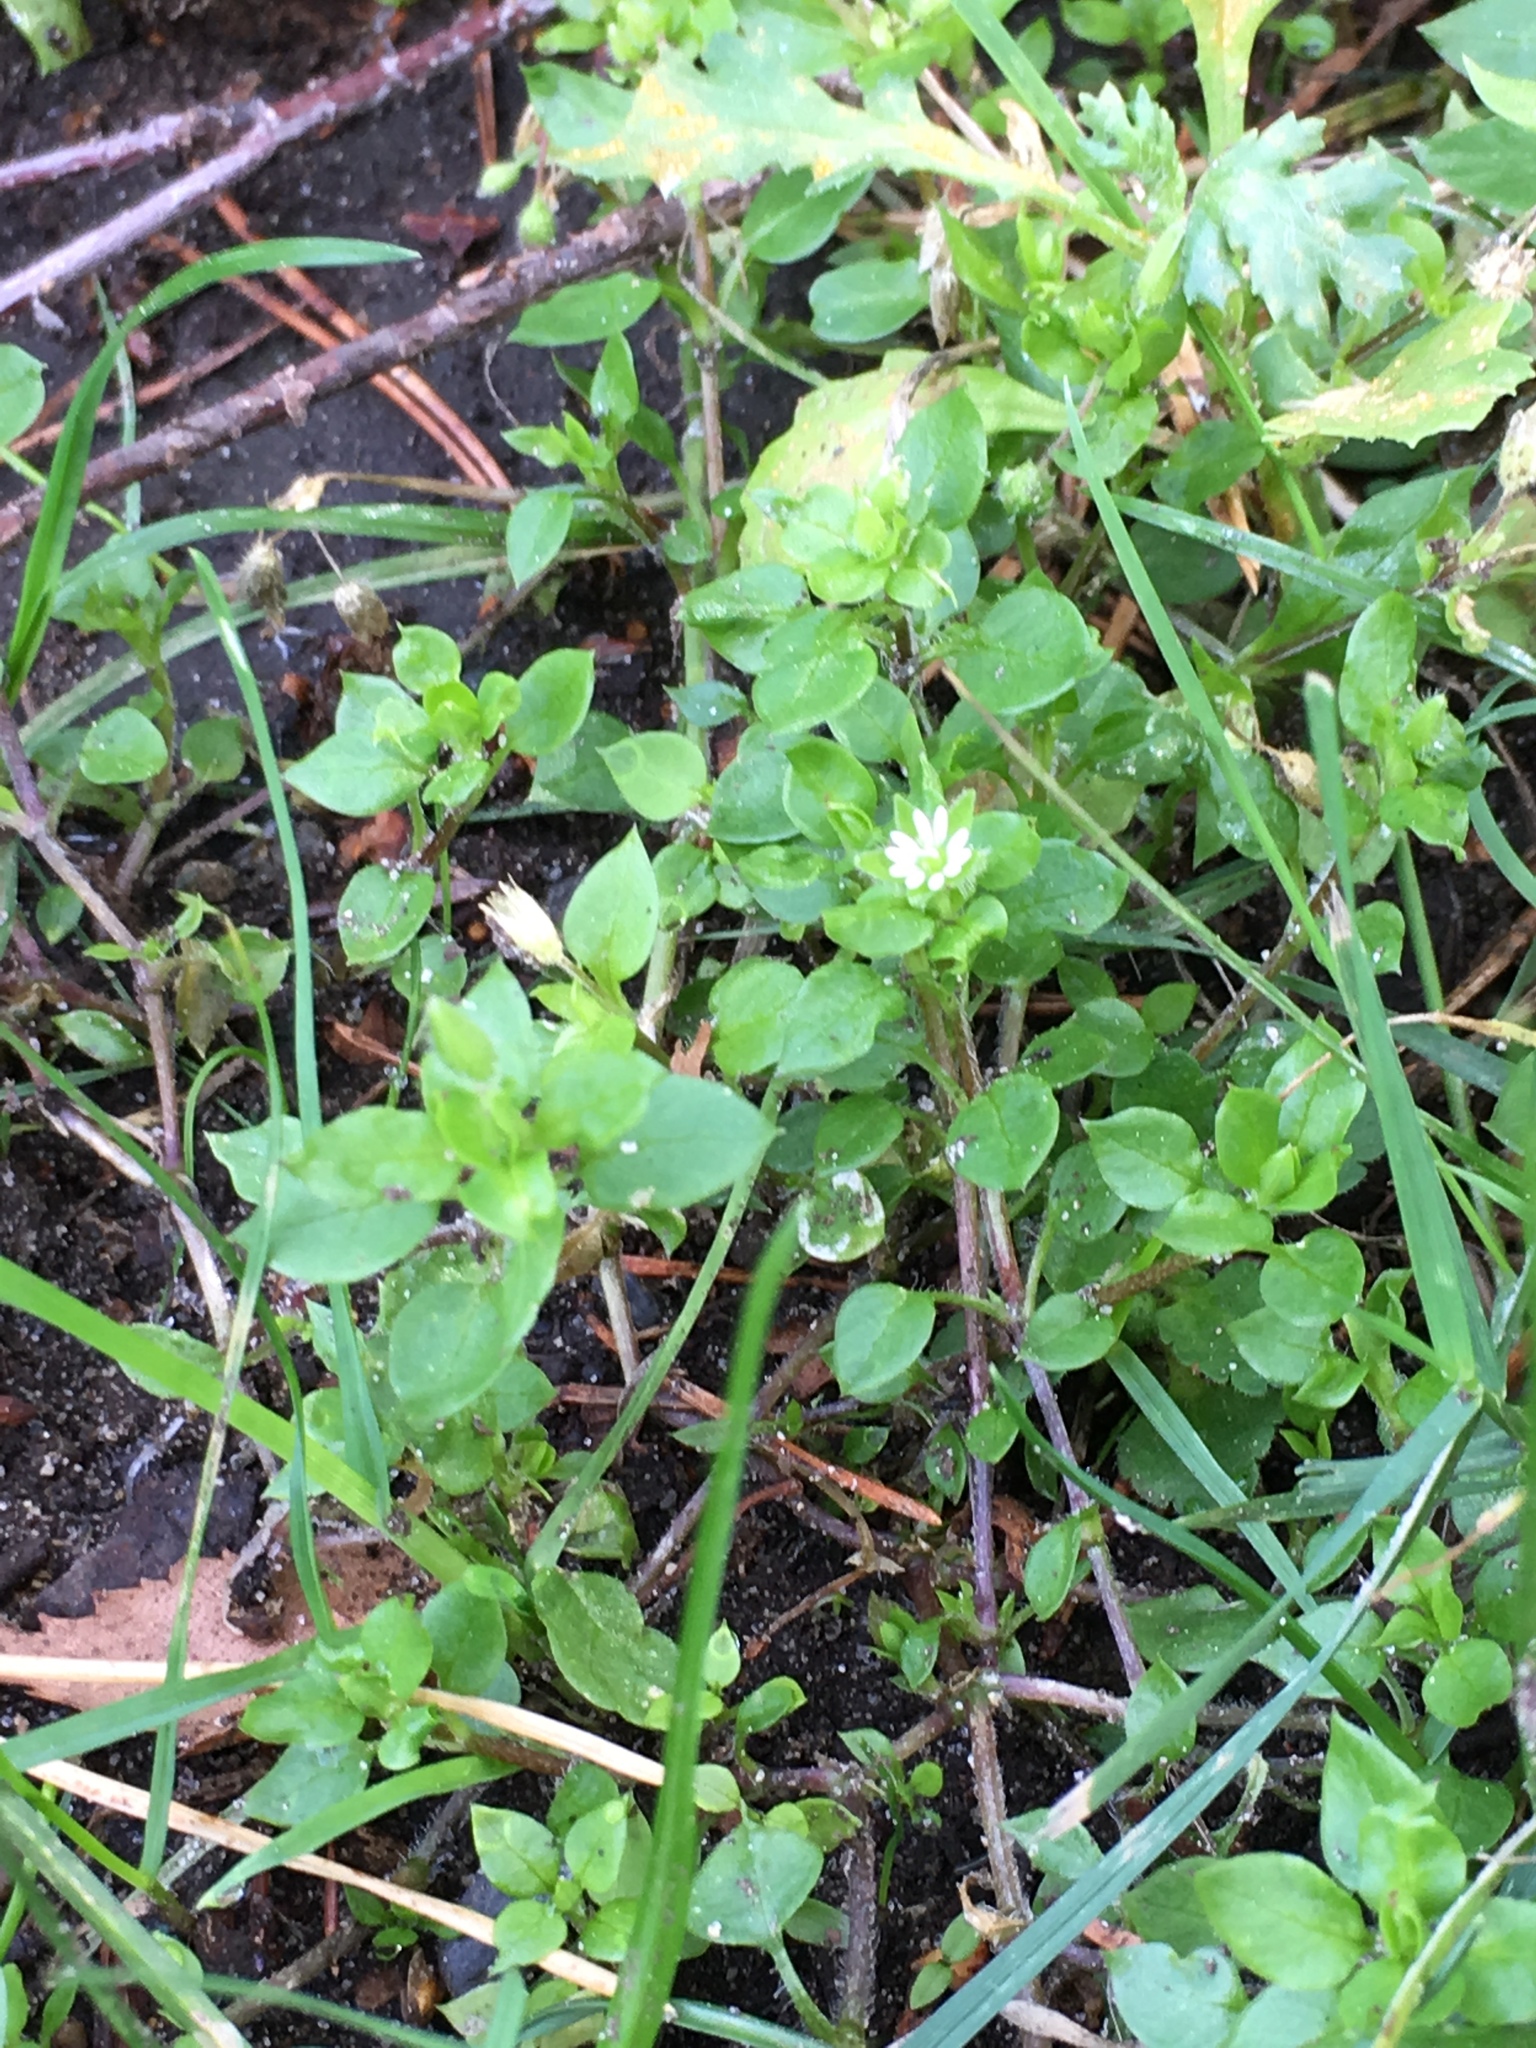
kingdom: Plantae
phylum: Tracheophyta
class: Magnoliopsida
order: Caryophyllales
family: Caryophyllaceae
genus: Stellaria
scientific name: Stellaria media
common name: Common chickweed
